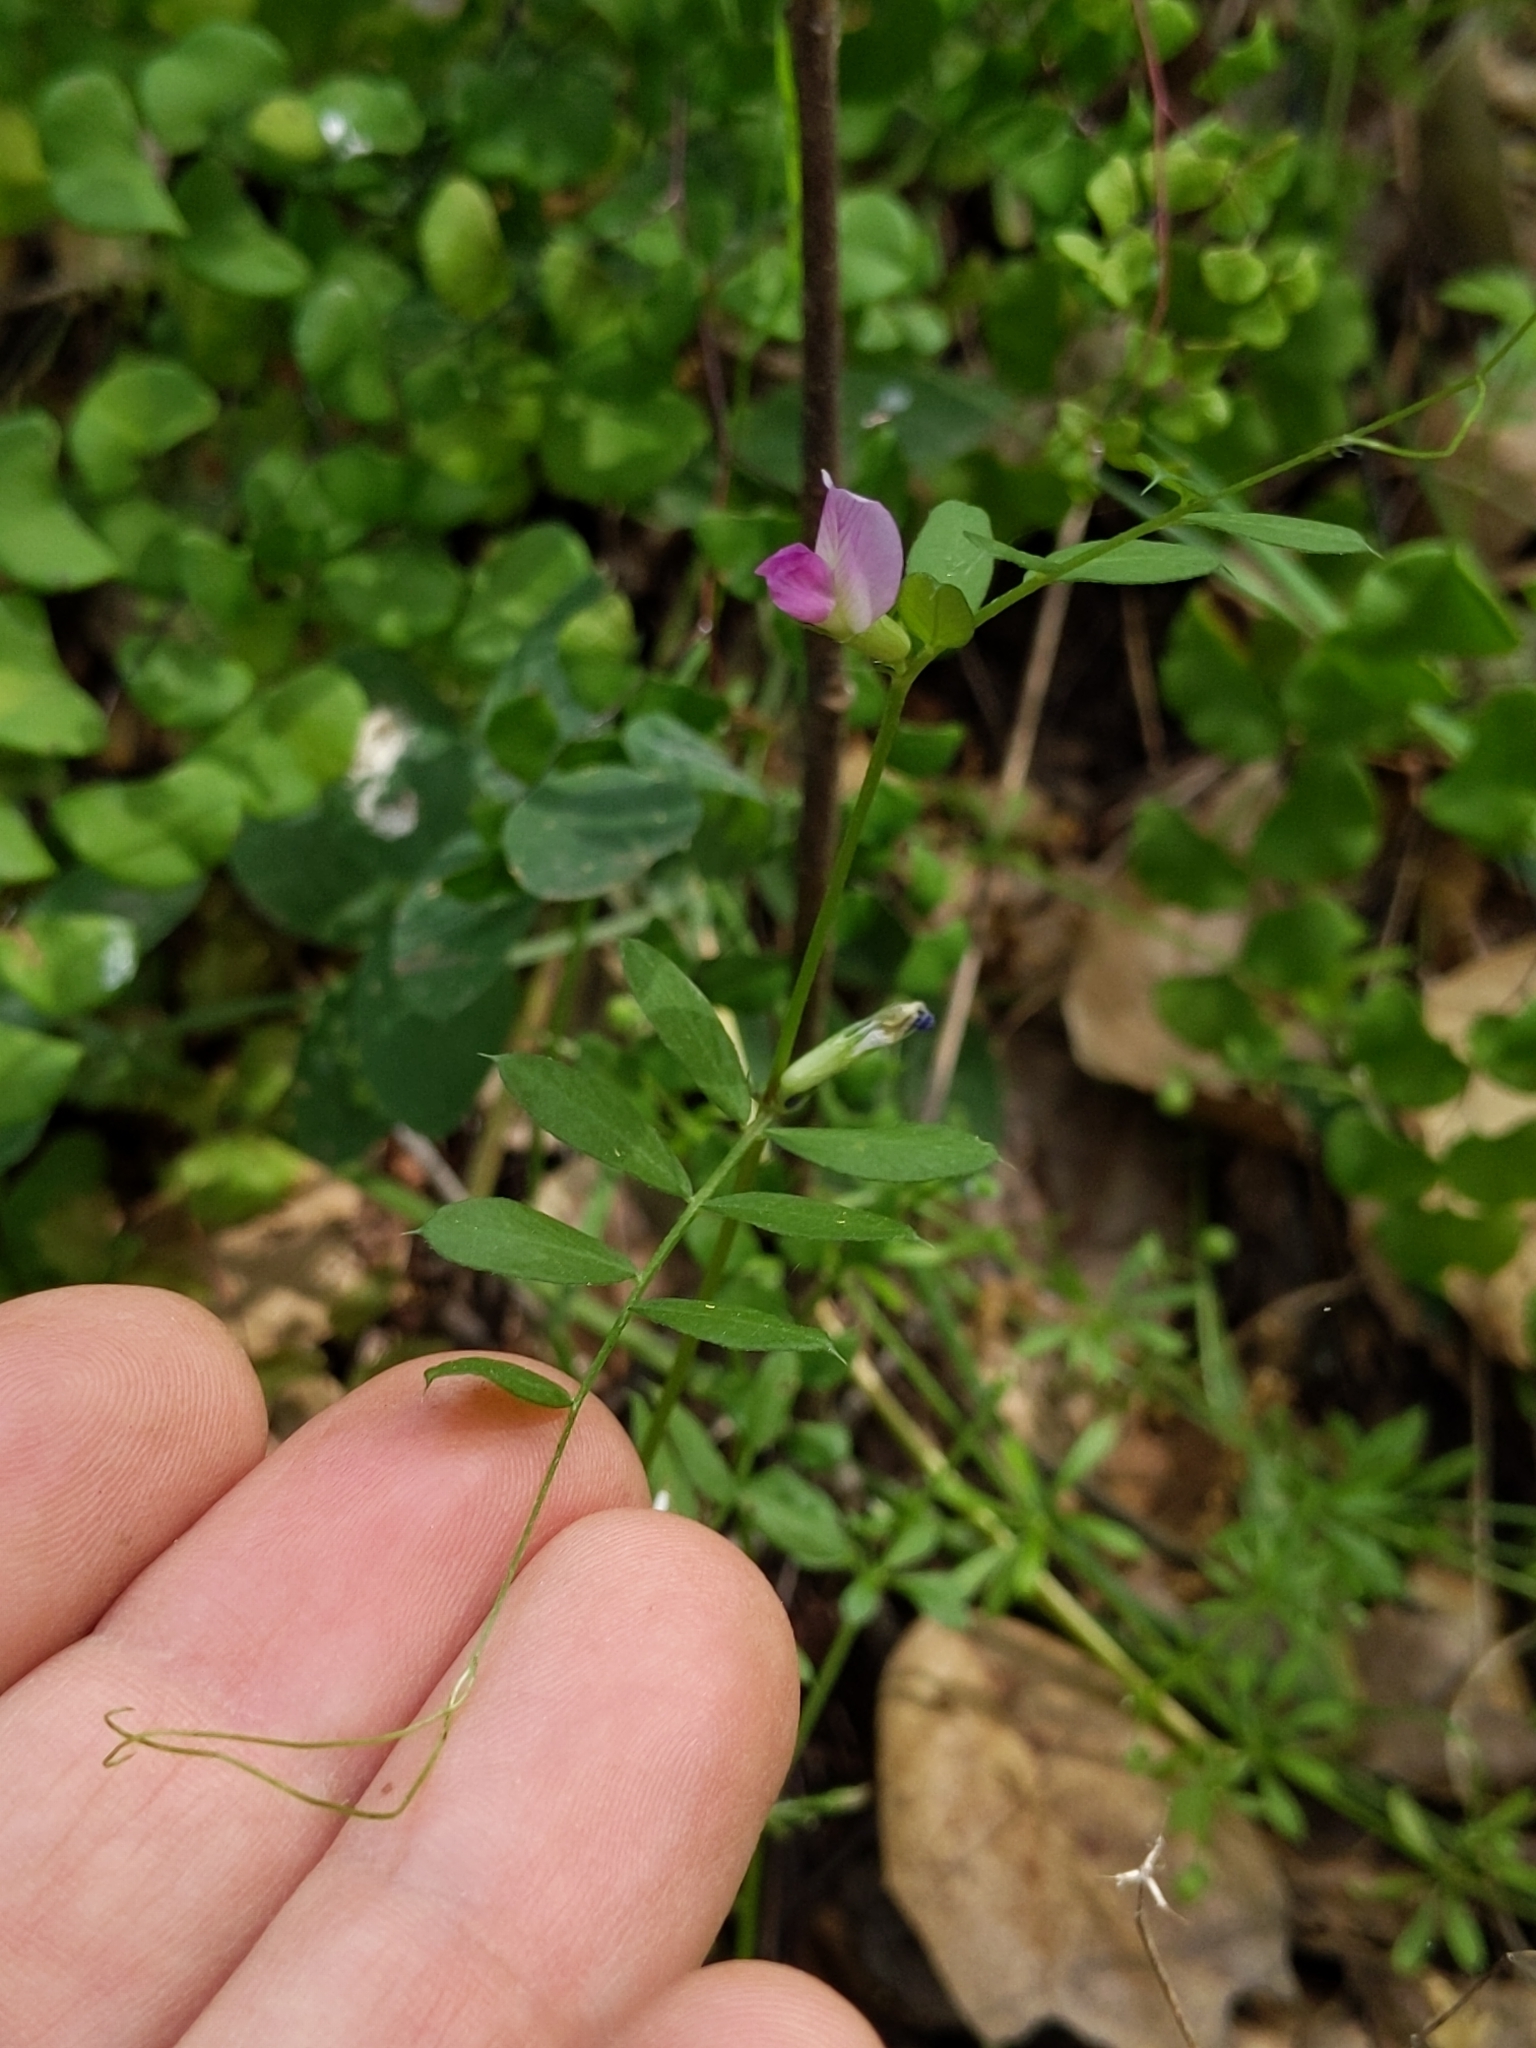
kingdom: Plantae
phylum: Tracheophyta
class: Magnoliopsida
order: Fabales
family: Fabaceae
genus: Vicia
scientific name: Vicia sativa
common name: Garden vetch
